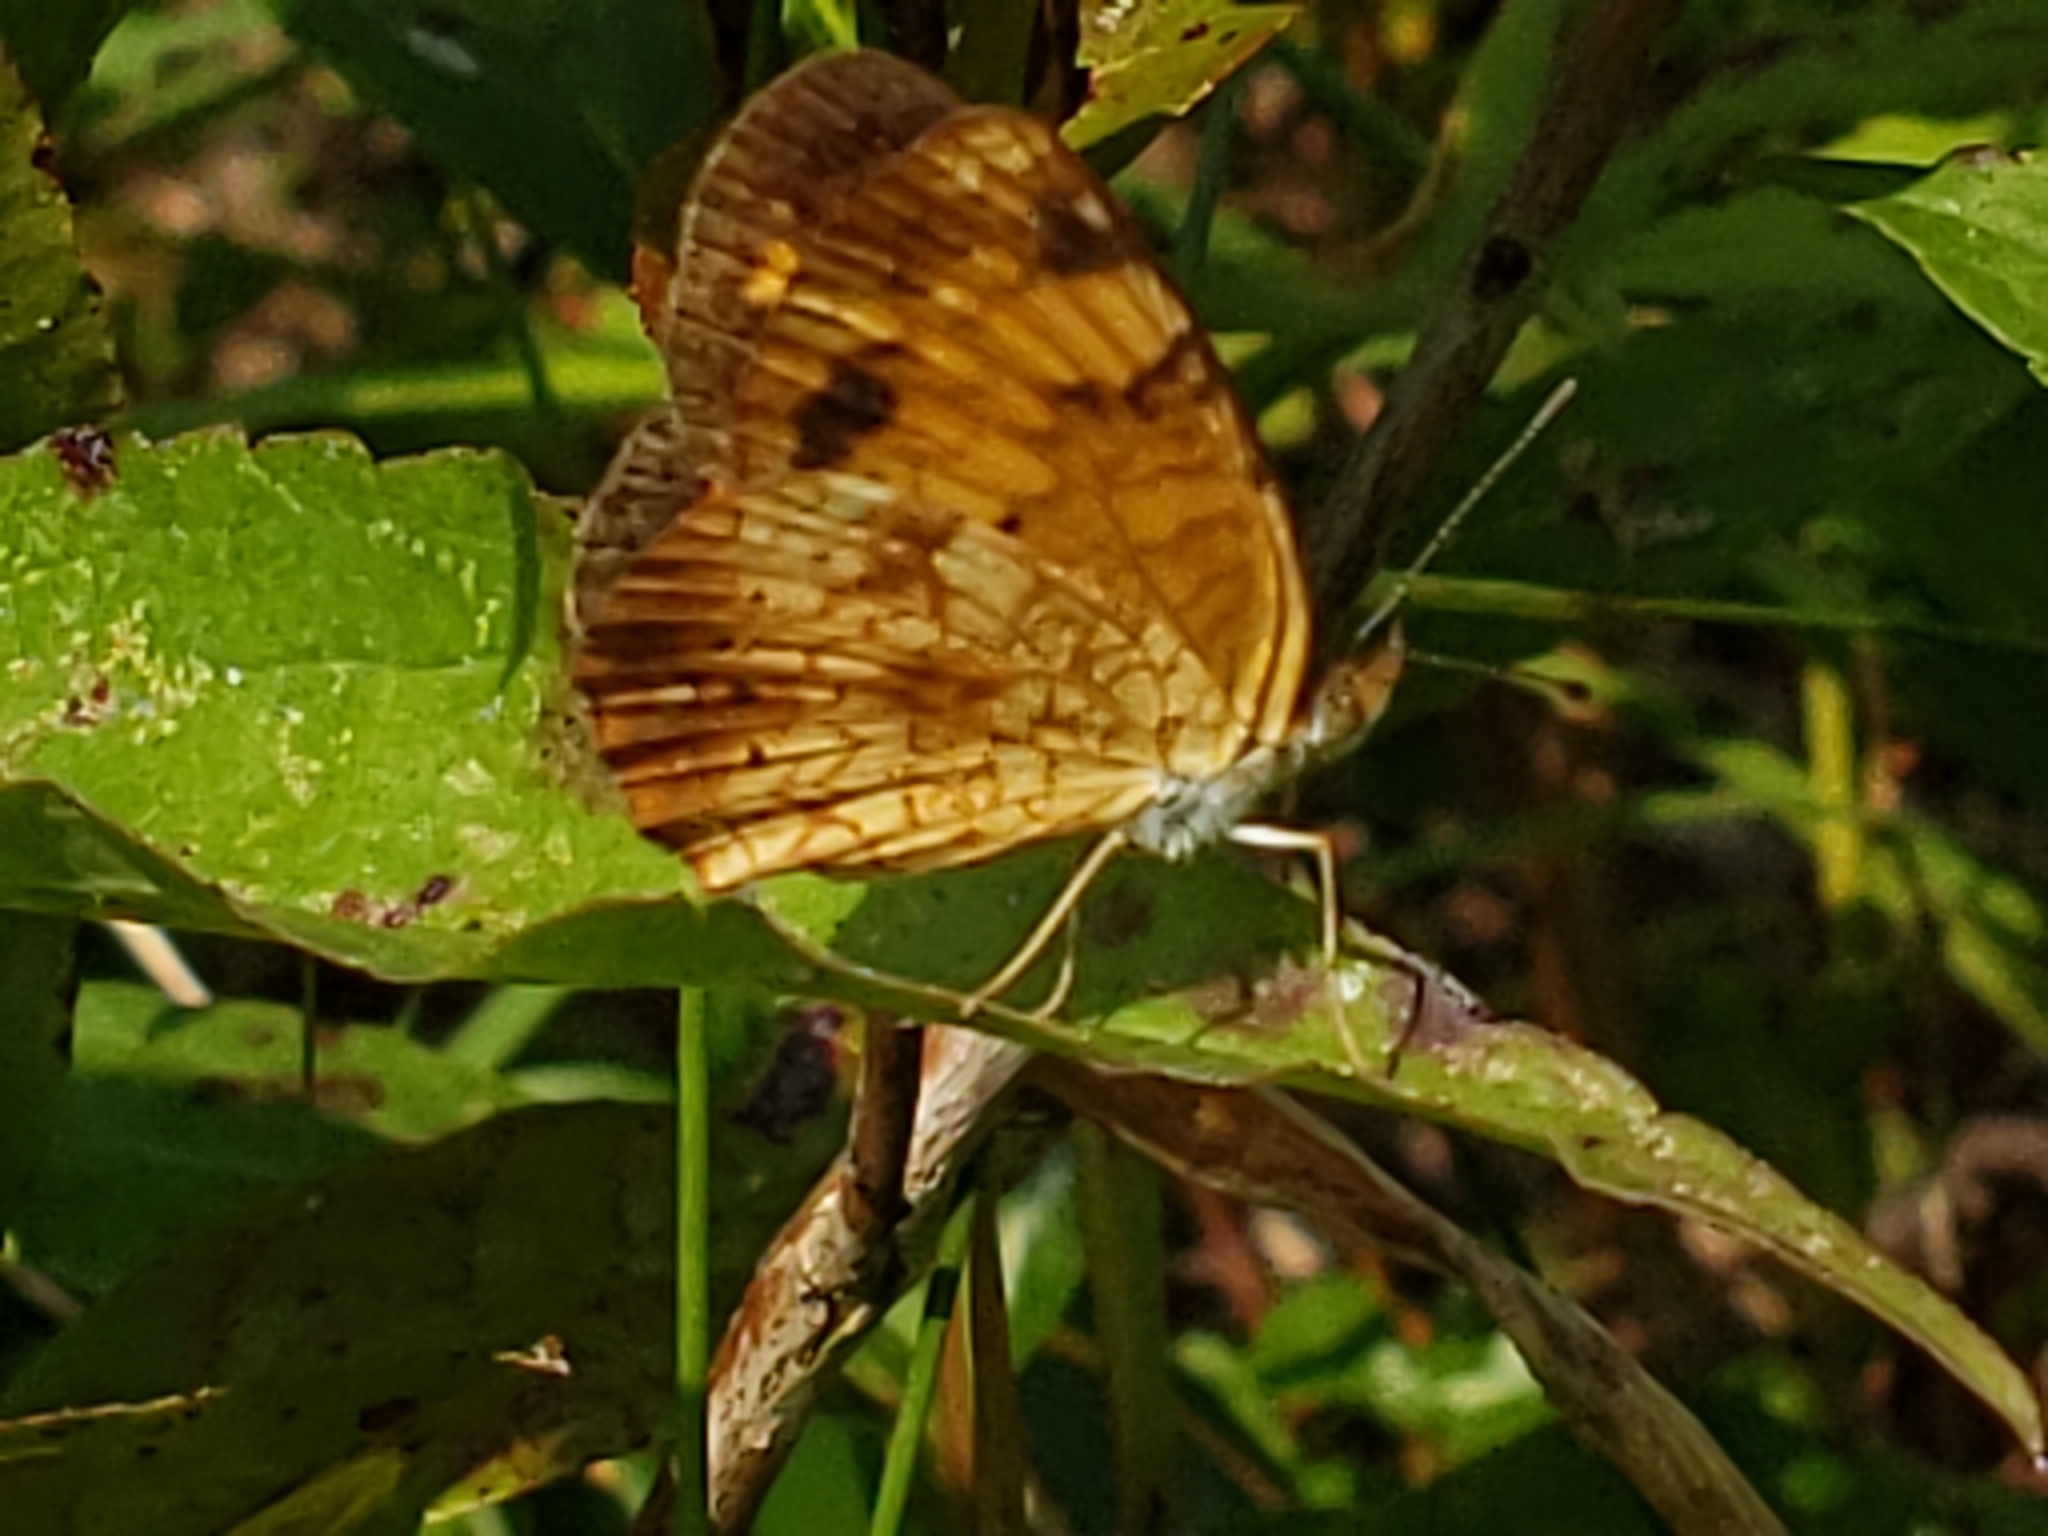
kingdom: Animalia
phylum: Arthropoda
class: Insecta
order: Lepidoptera
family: Nymphalidae
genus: Phyciodes
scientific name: Phyciodes tharos
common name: Pearl crescent
